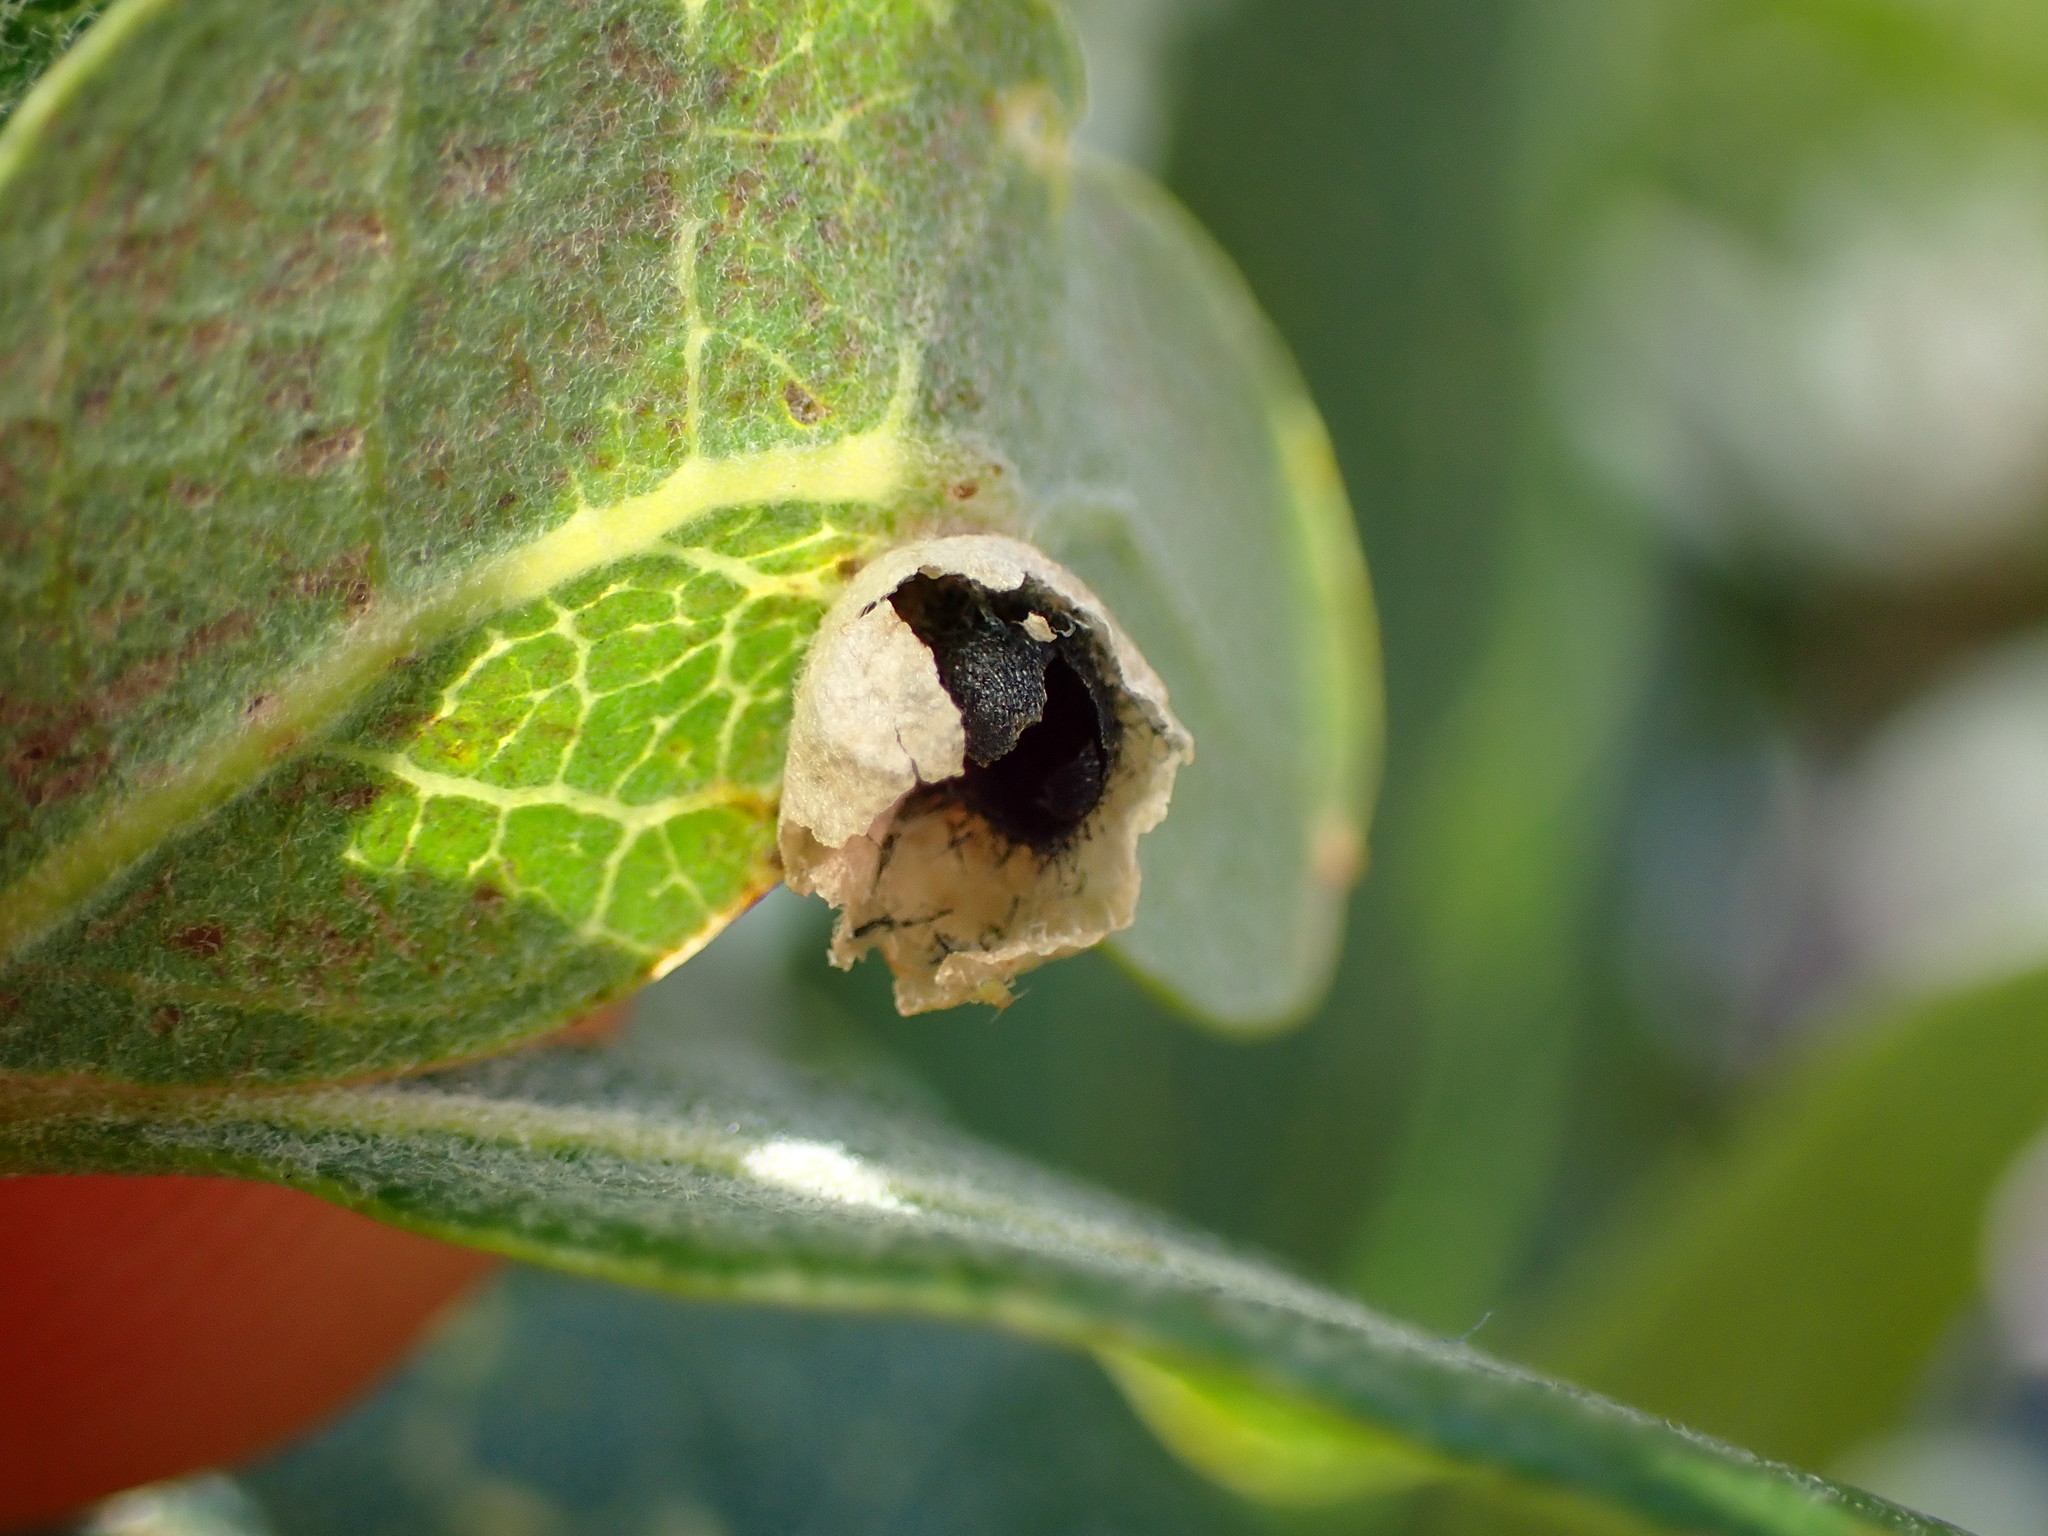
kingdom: Animalia
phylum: Arthropoda
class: Insecta
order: Hymenoptera
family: Cynipidae
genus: Andricus
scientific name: Andricus
